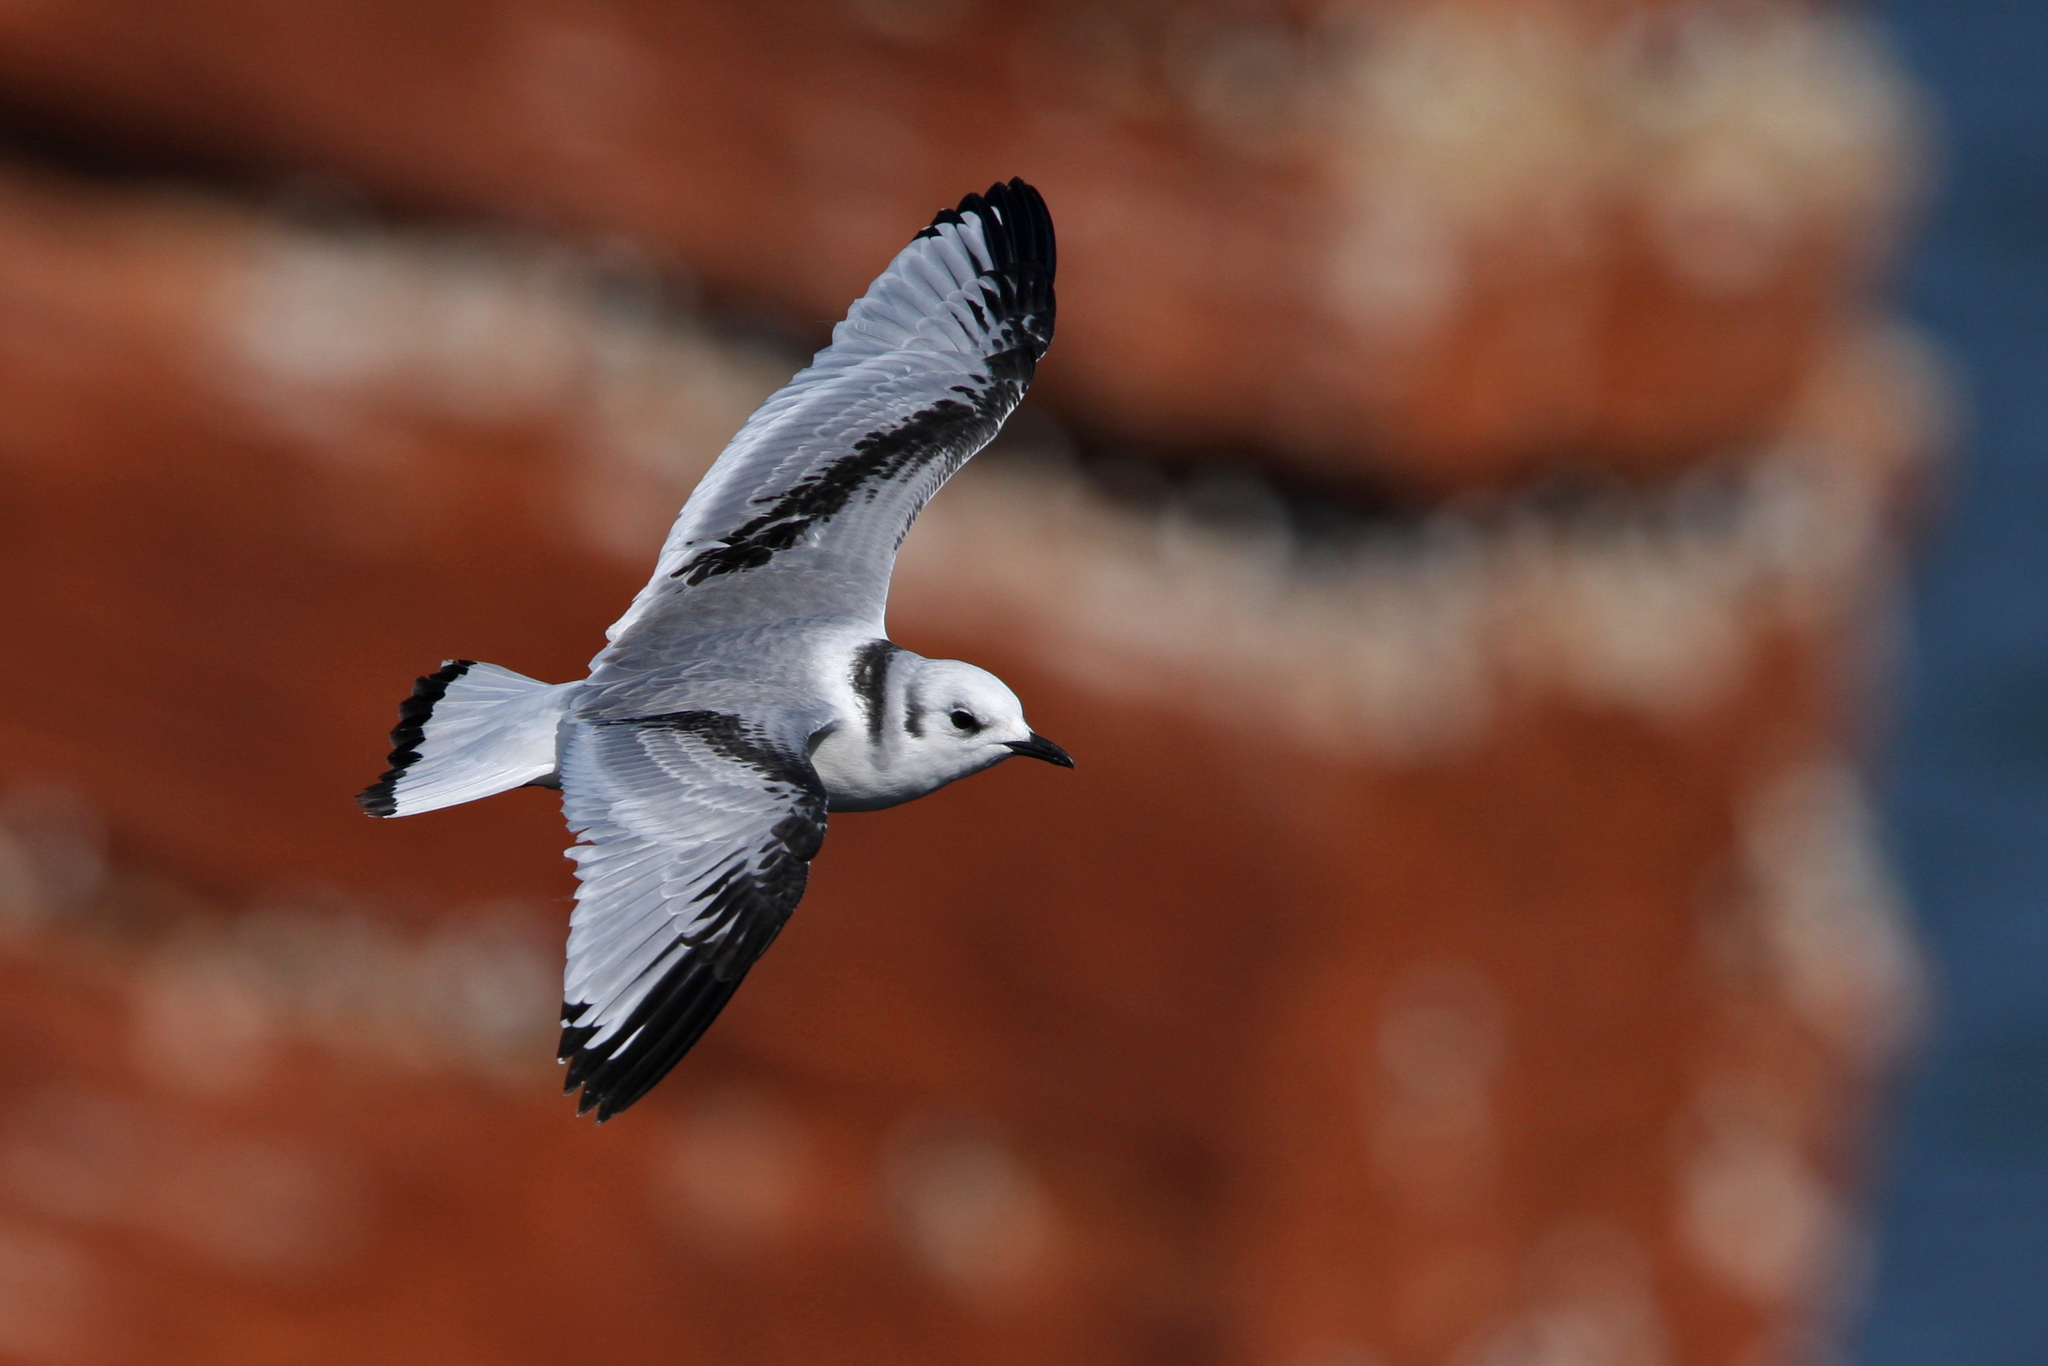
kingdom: Animalia
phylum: Chordata
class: Aves
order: Charadriiformes
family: Laridae
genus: Rissa
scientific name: Rissa tridactyla
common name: Black-legged kittiwake
